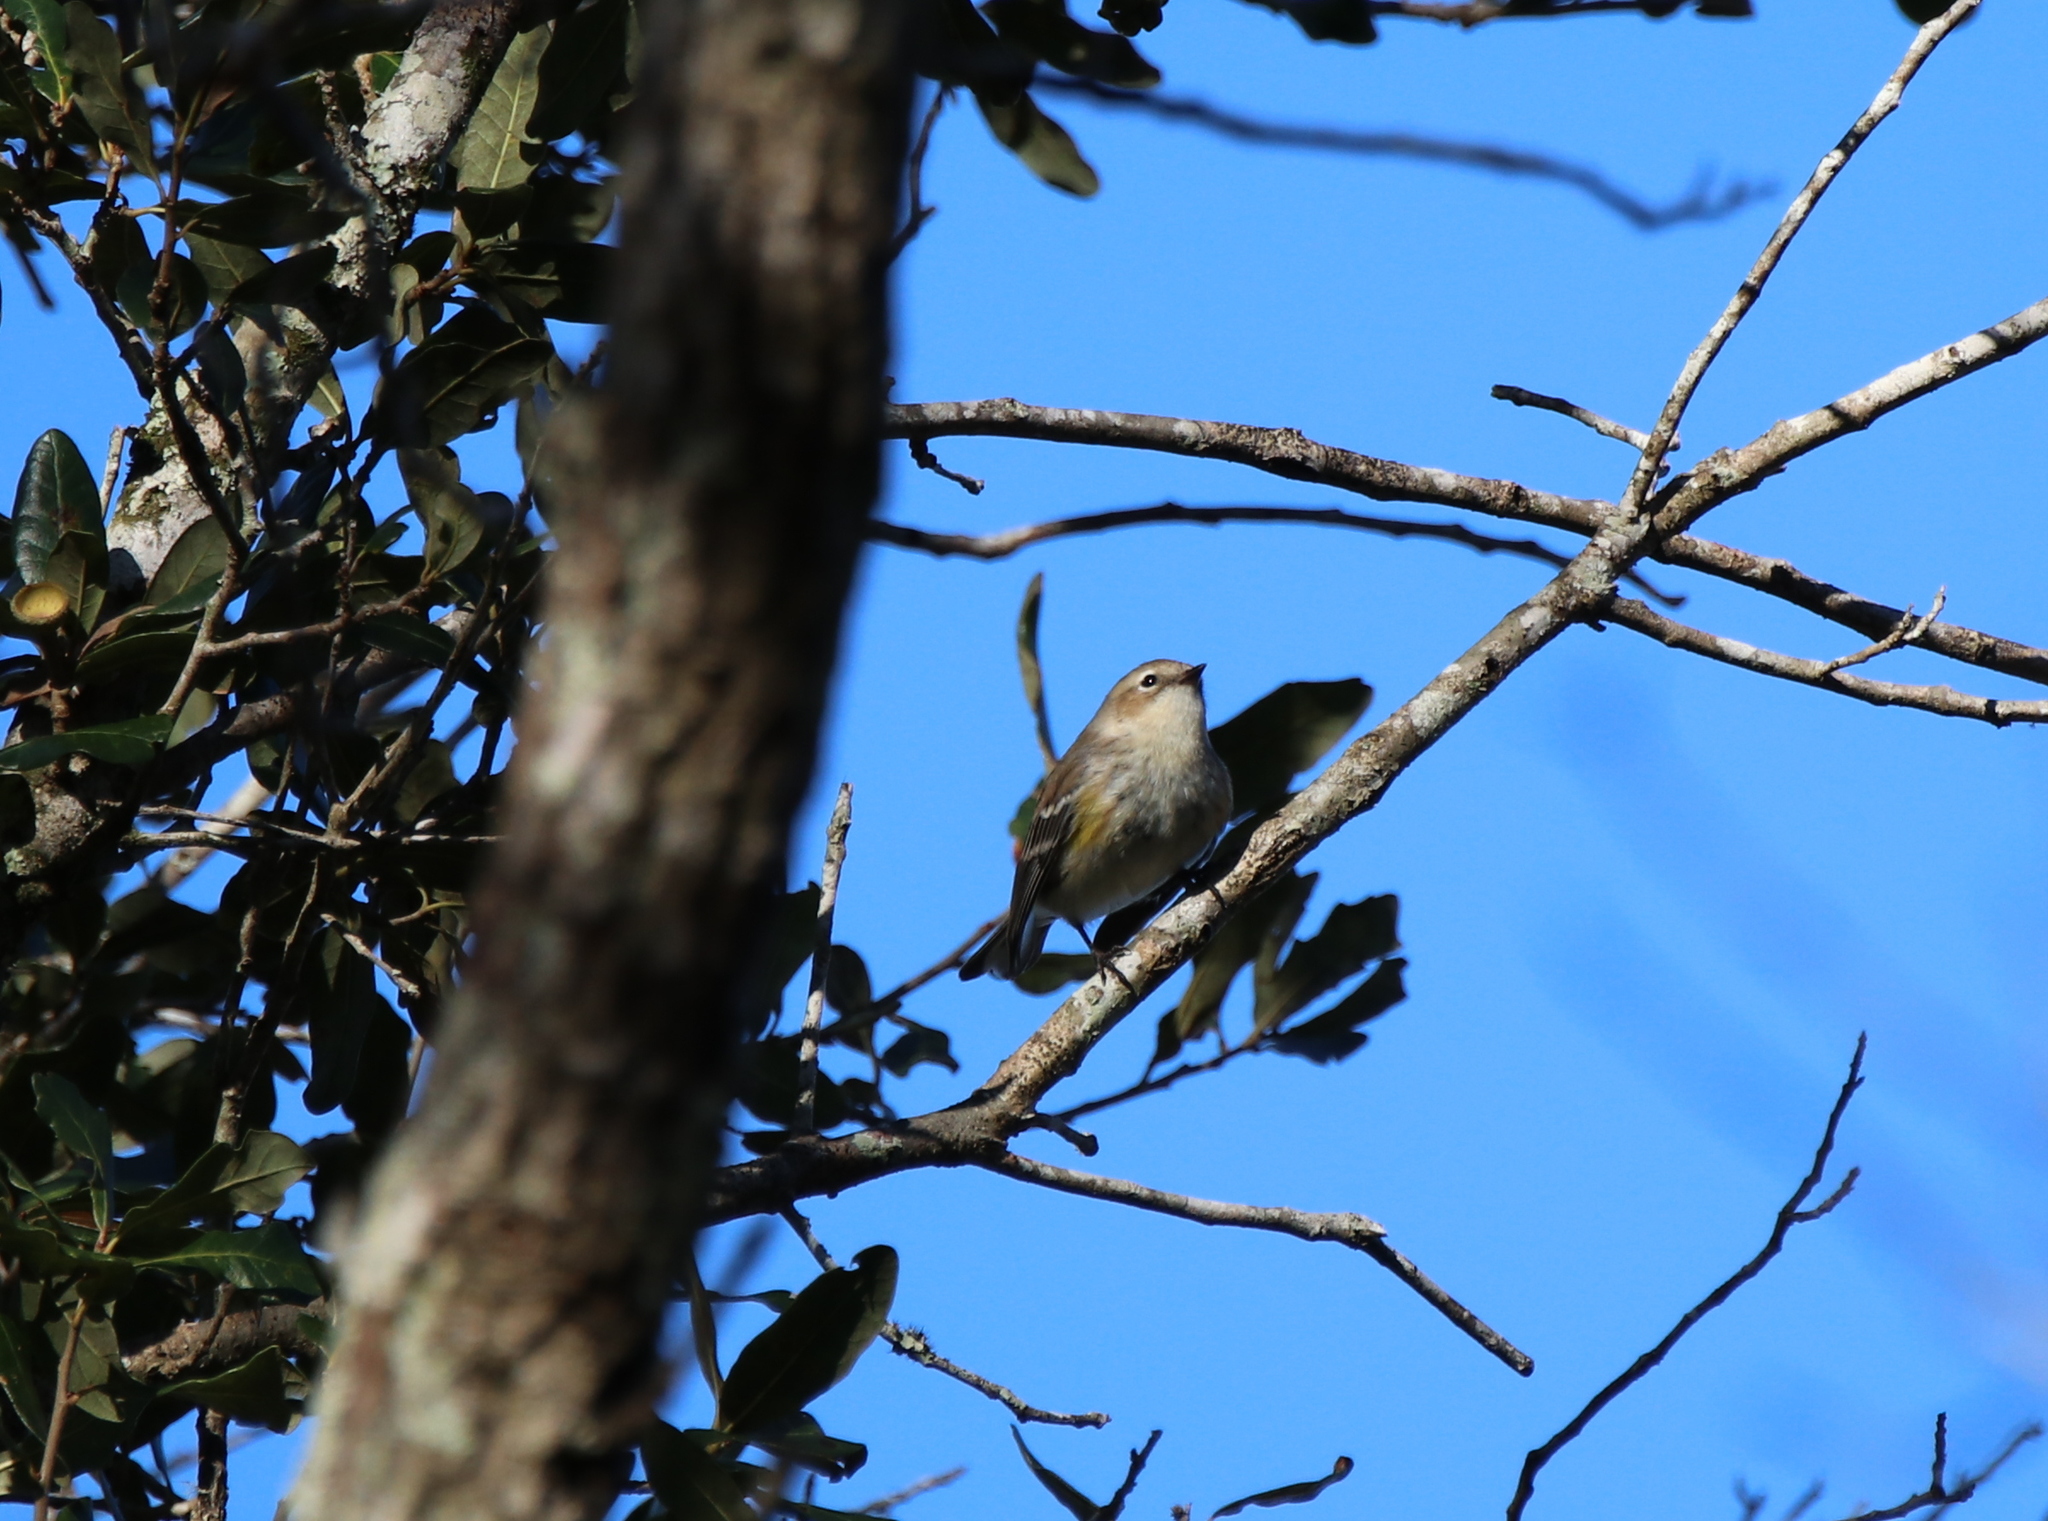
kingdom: Animalia
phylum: Chordata
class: Aves
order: Passeriformes
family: Parulidae
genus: Setophaga
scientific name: Setophaga coronata
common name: Myrtle warbler
